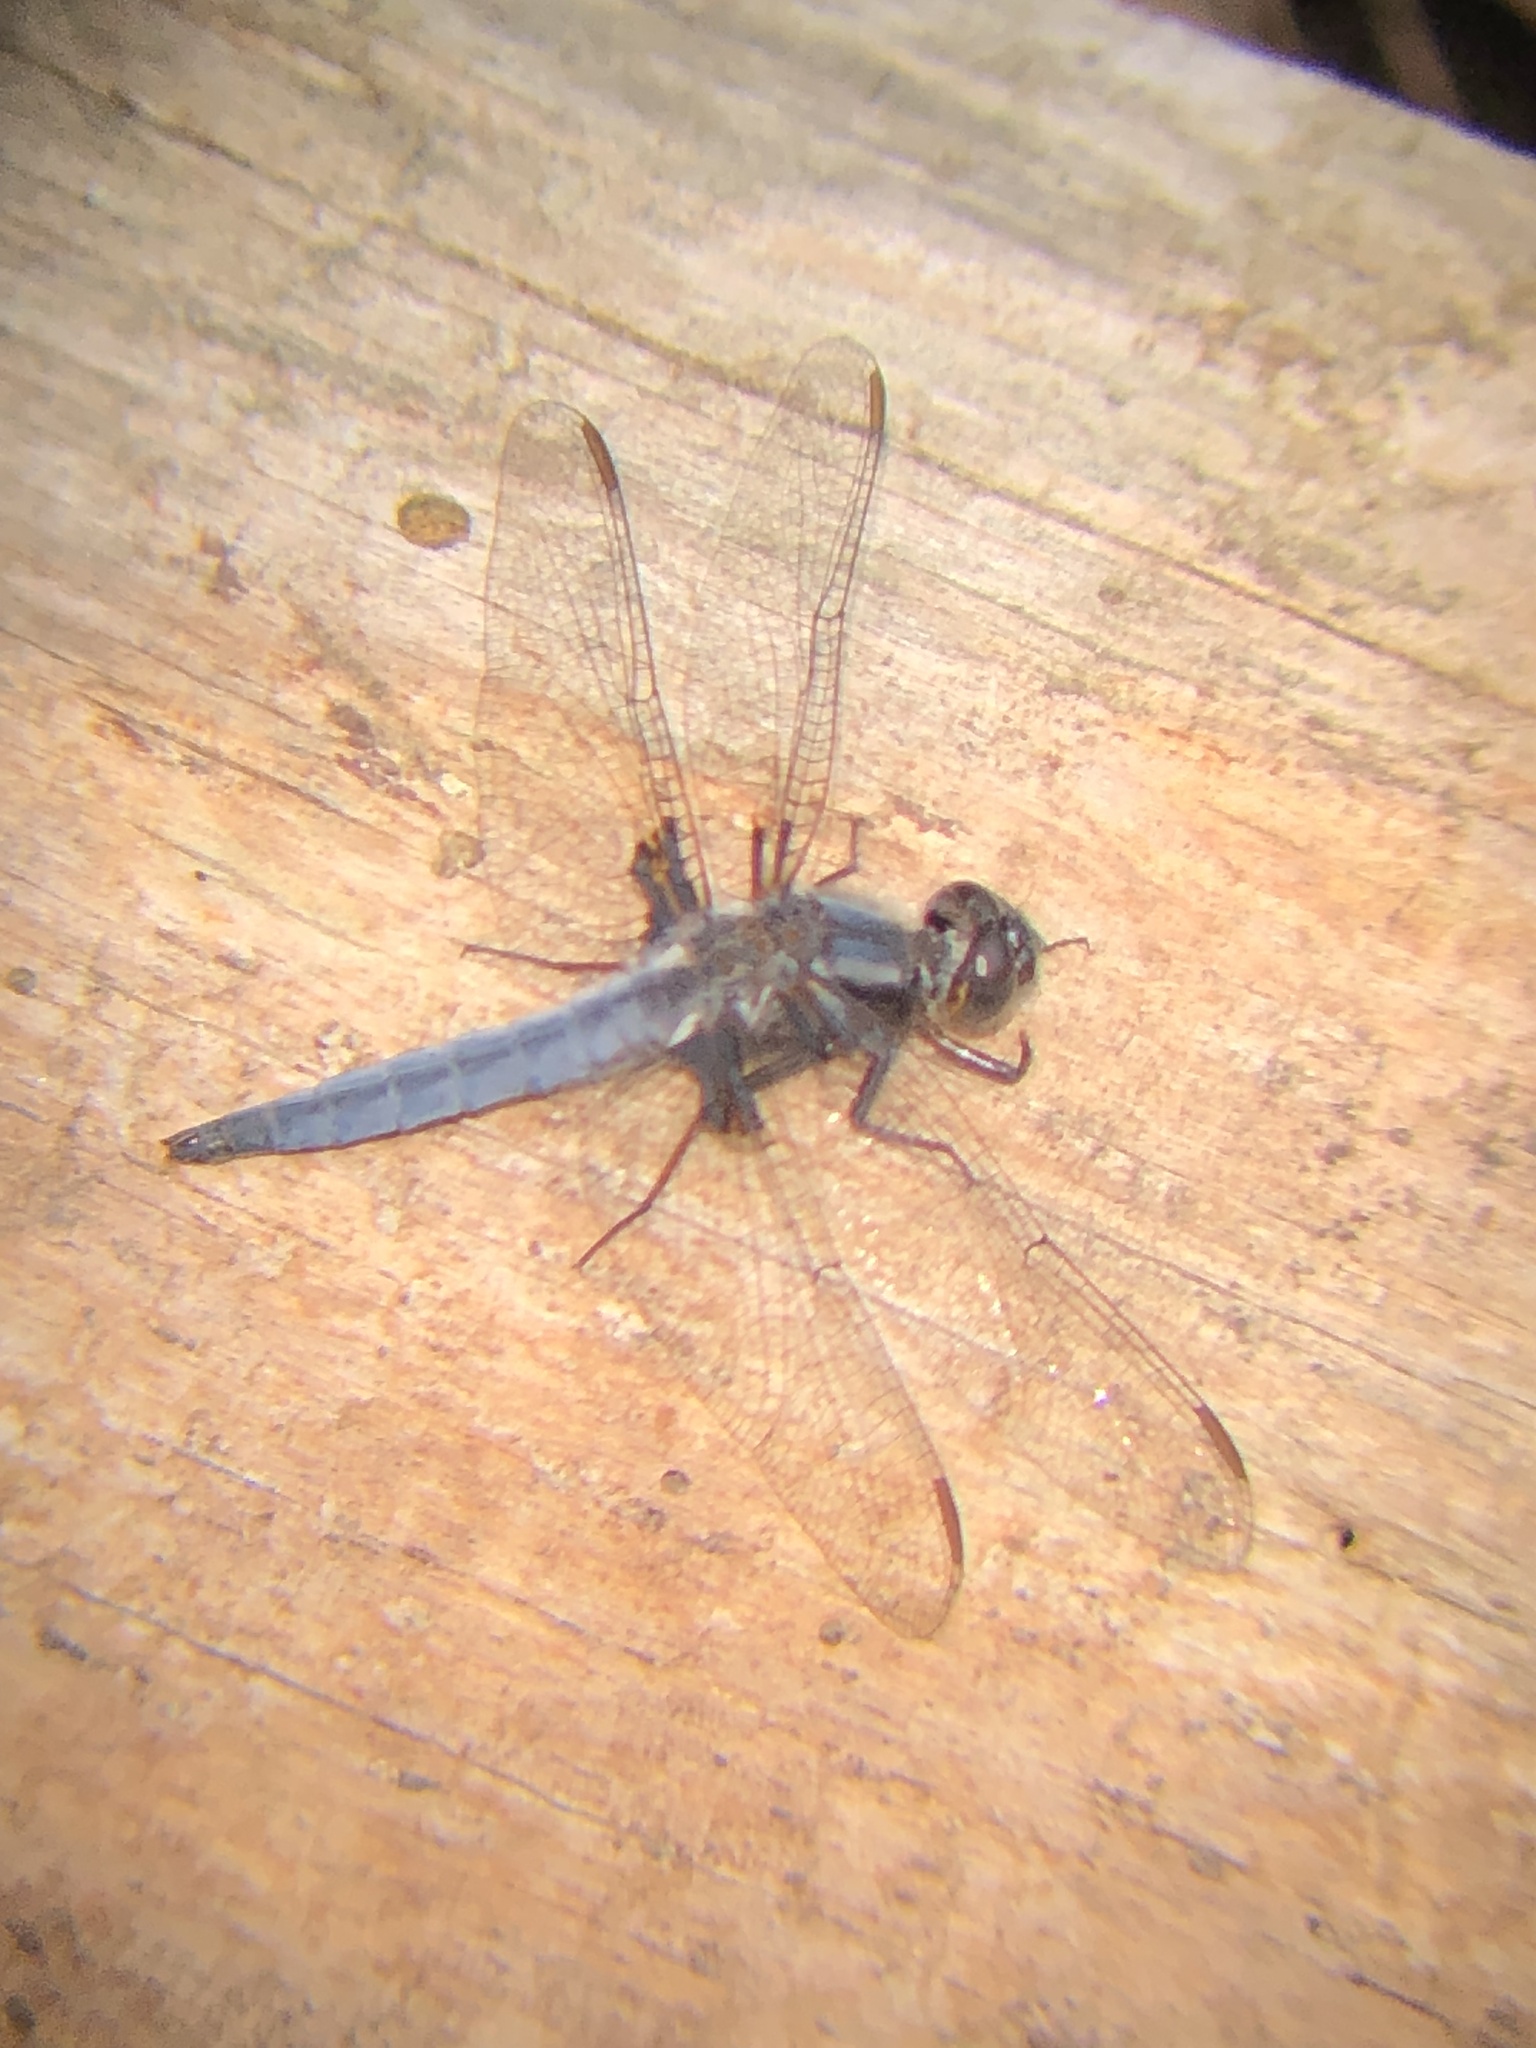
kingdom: Animalia
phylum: Arthropoda
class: Insecta
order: Odonata
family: Libellulidae
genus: Ladona
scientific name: Ladona deplanata
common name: Blue corporal
